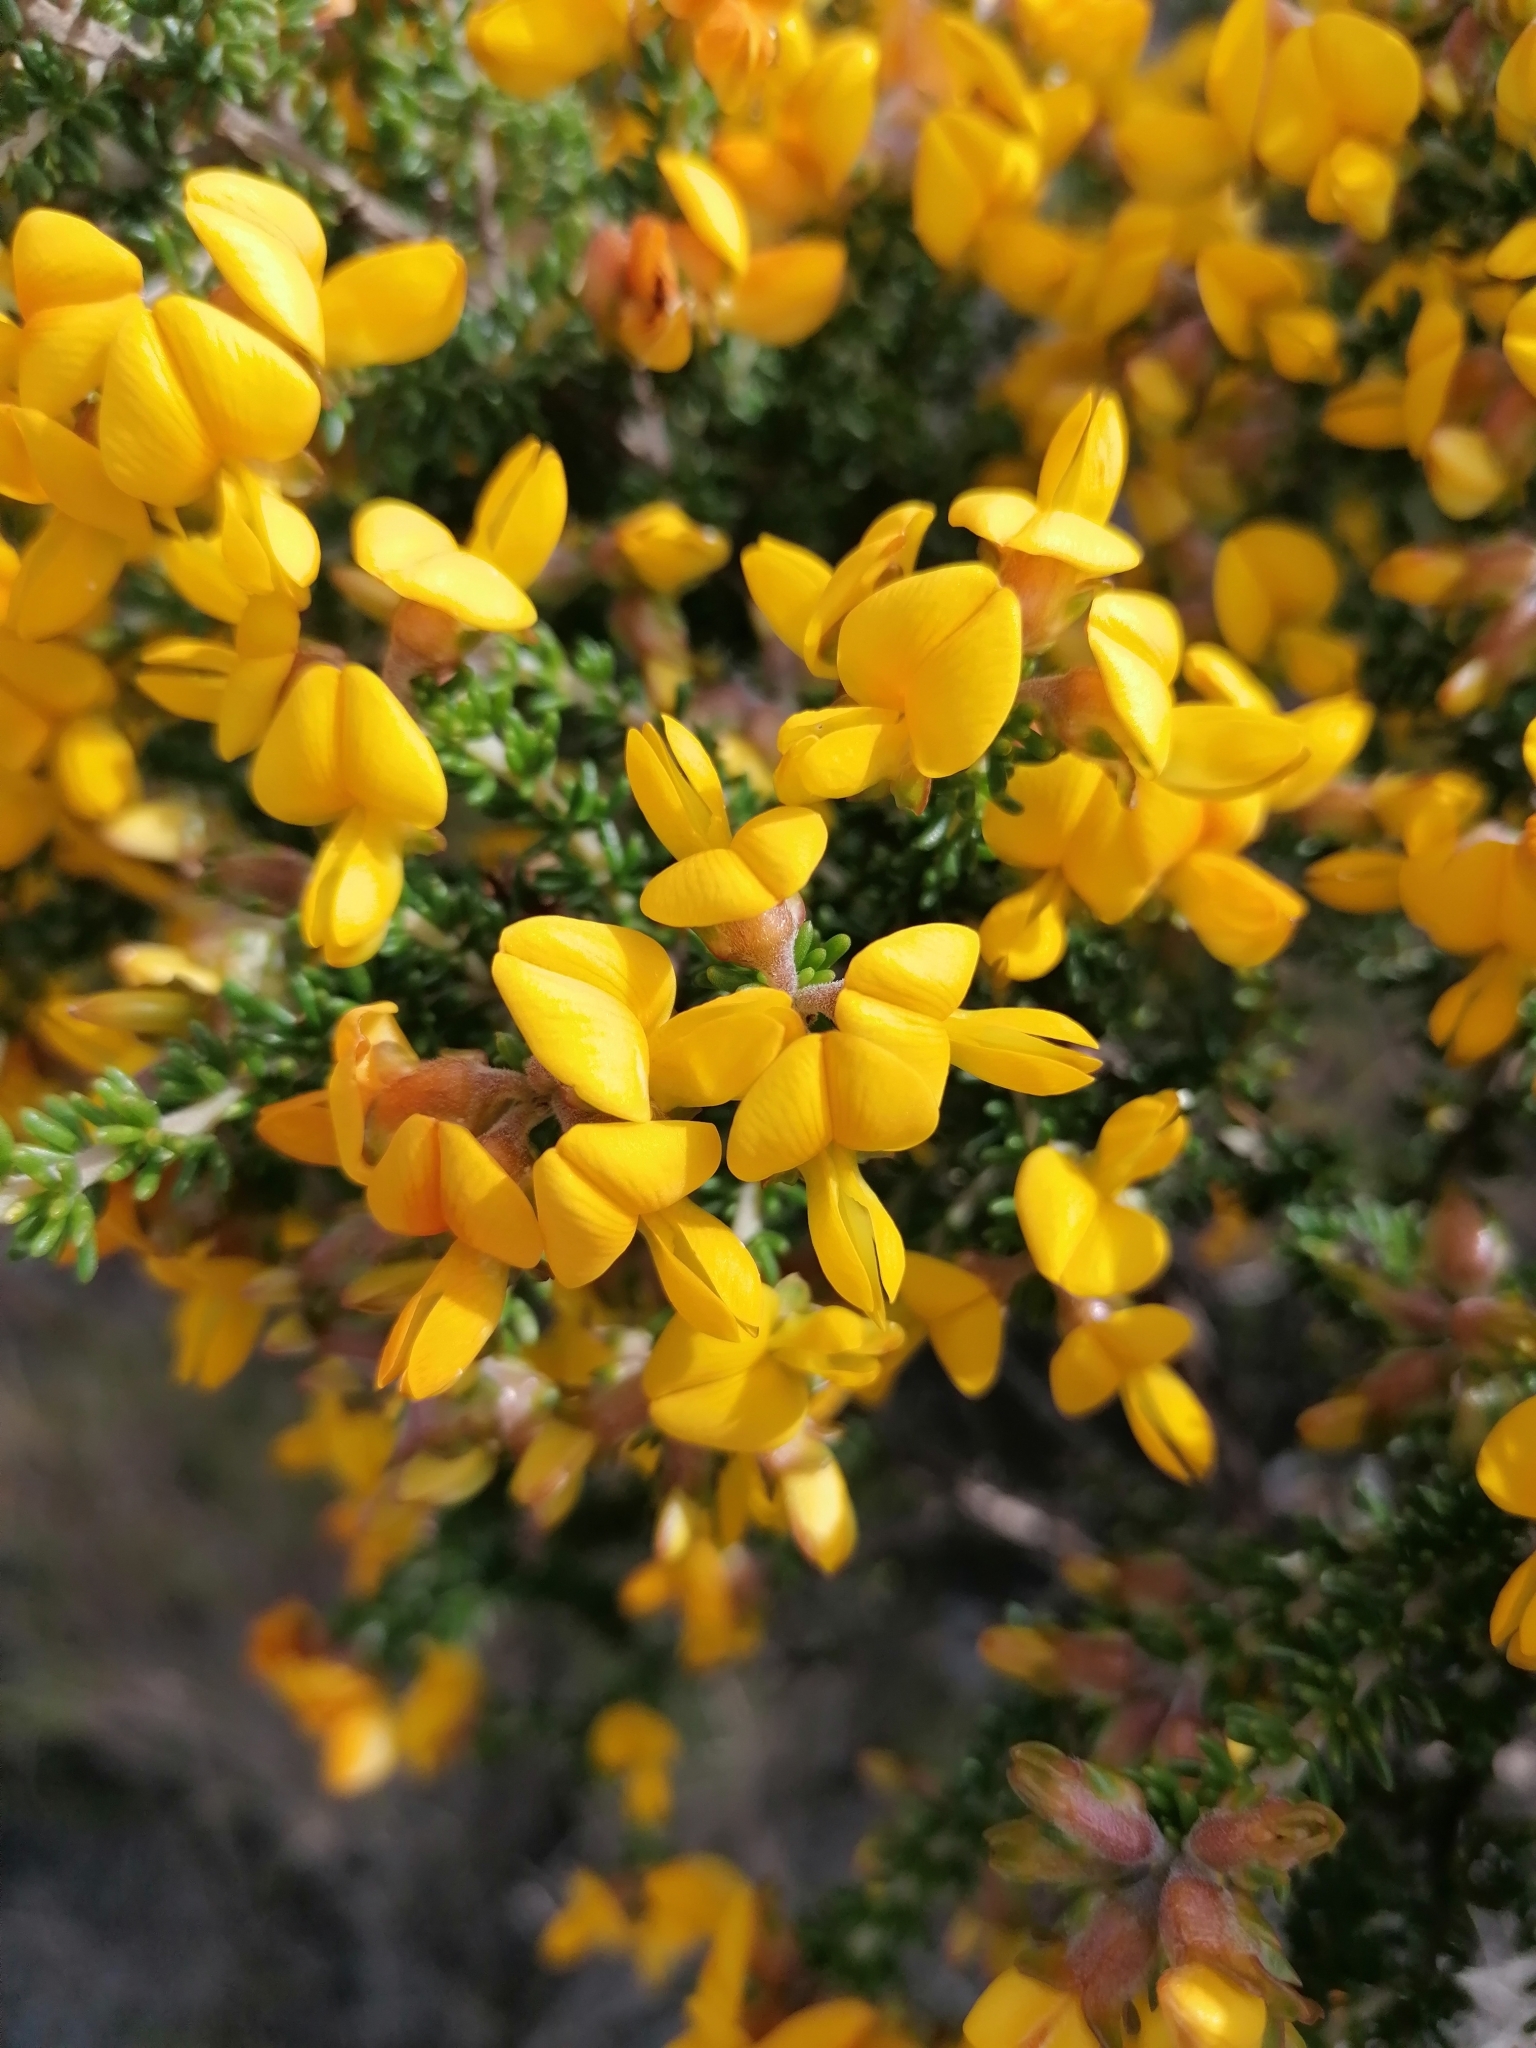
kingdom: Plantae
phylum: Tracheophyta
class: Magnoliopsida
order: Fabales
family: Fabaceae
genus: Aspalathus
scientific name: Aspalathus carnosa
